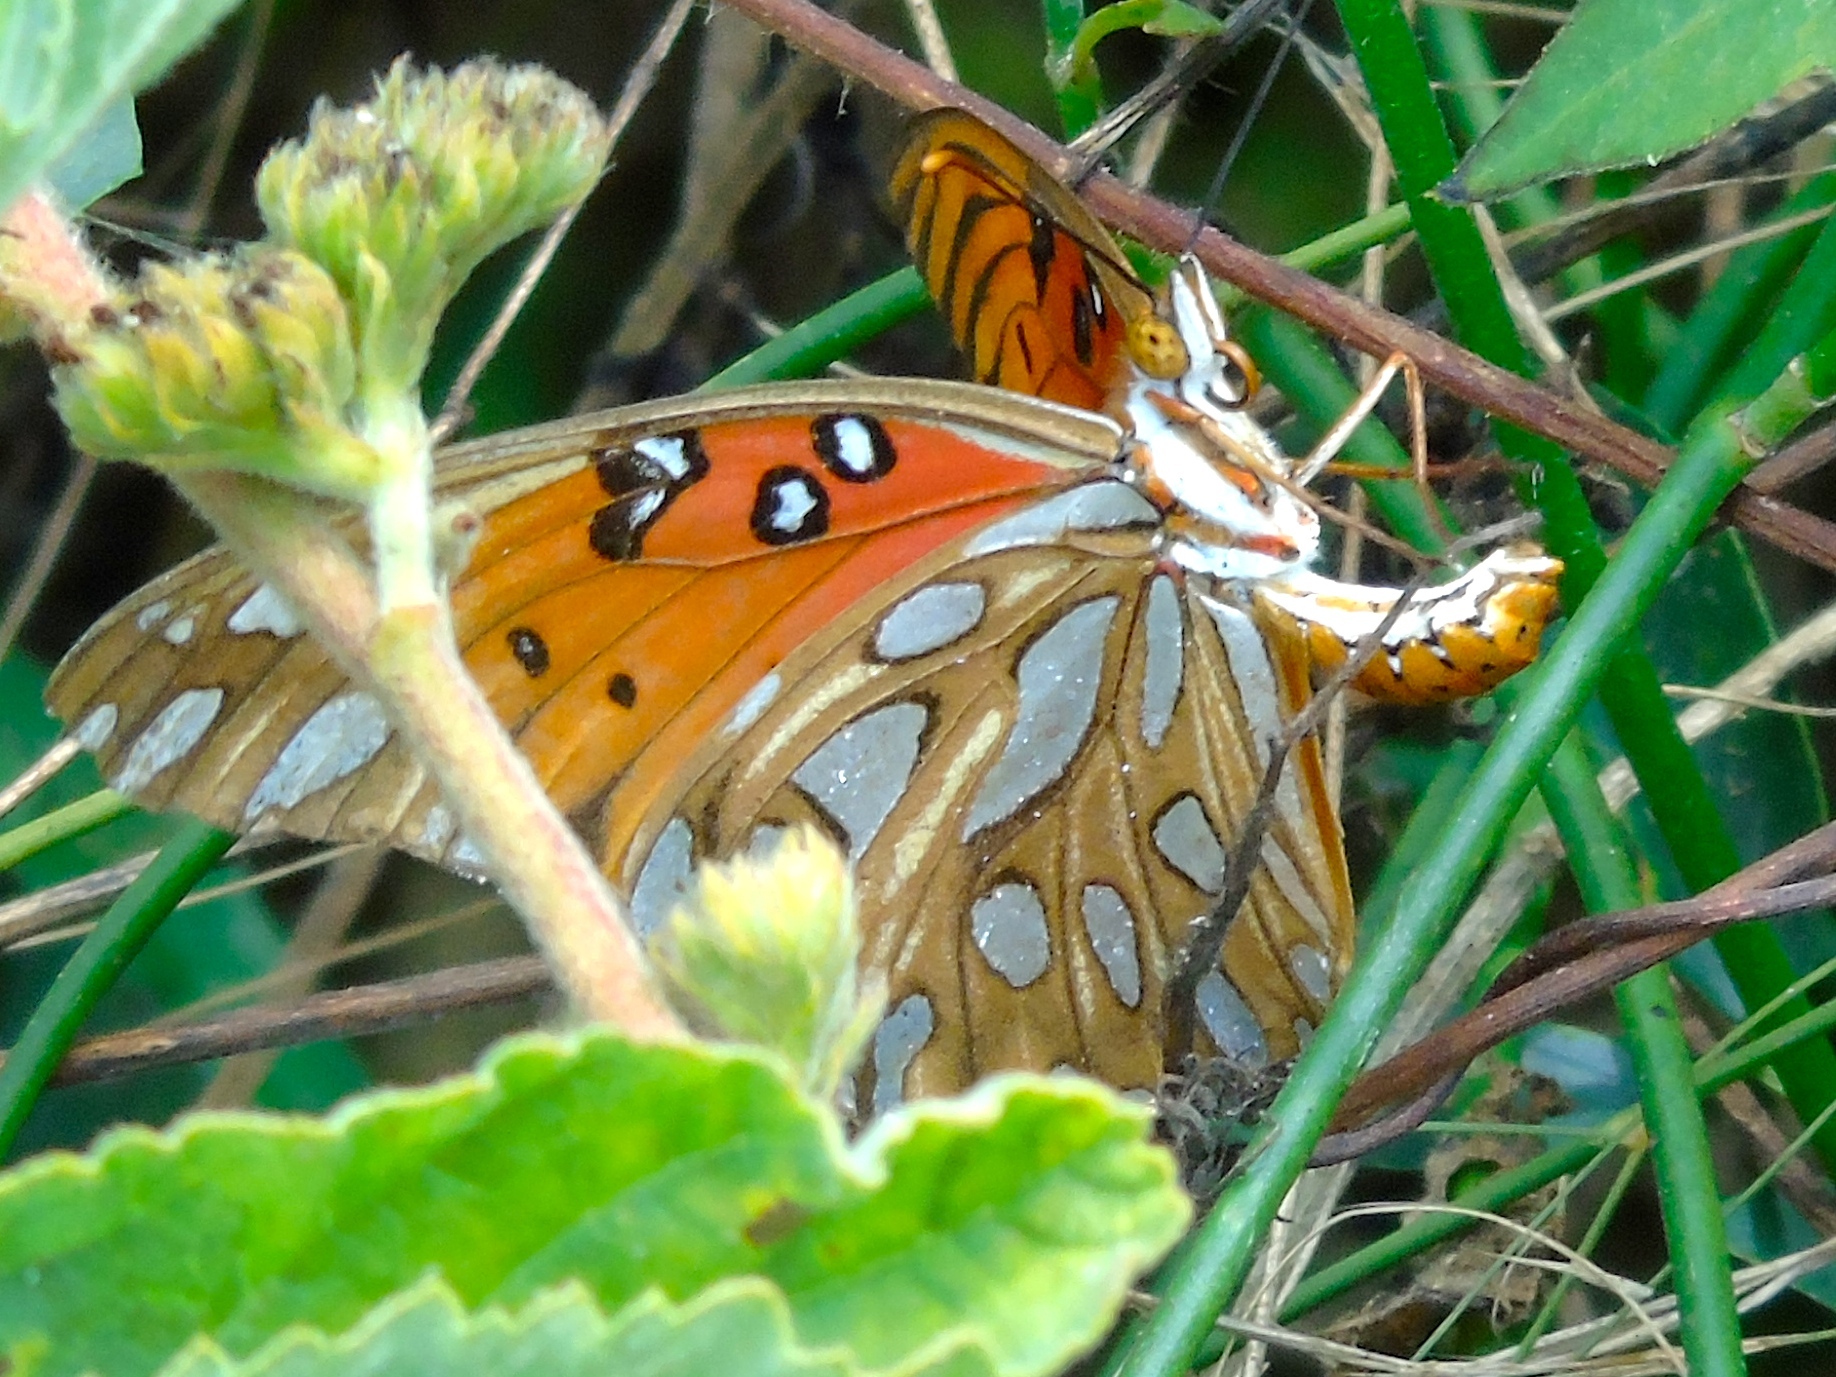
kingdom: Animalia
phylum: Arthropoda
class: Insecta
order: Lepidoptera
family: Nymphalidae
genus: Dione
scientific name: Dione vanillae
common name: Gulf fritillary
